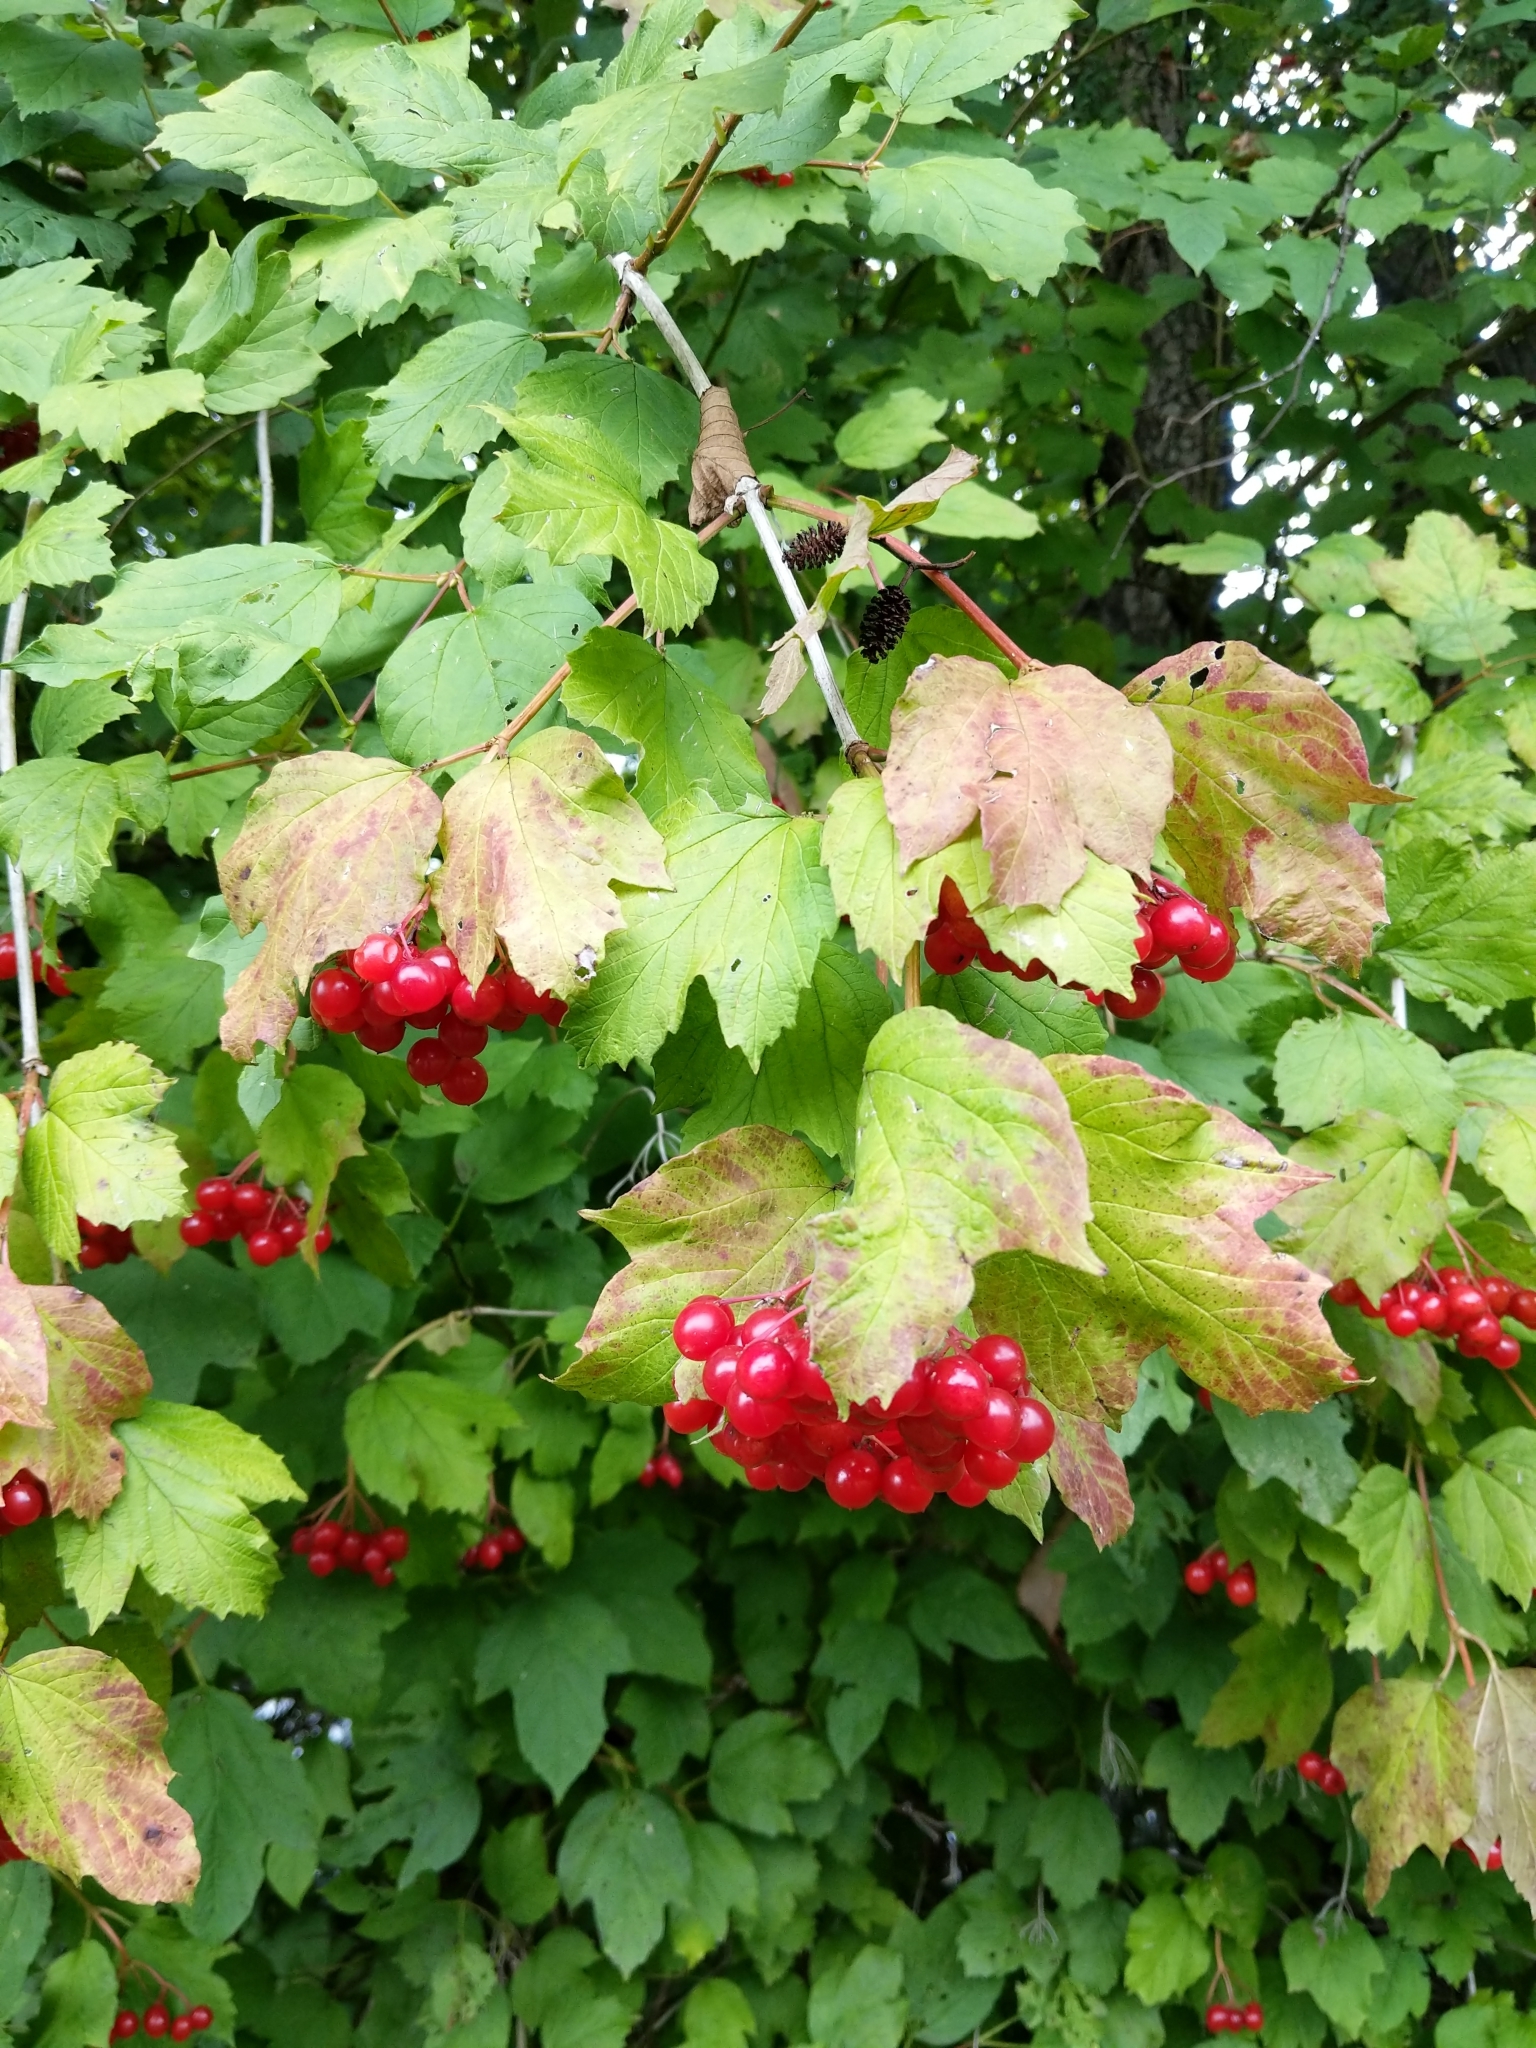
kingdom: Plantae
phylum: Tracheophyta
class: Magnoliopsida
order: Dipsacales
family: Viburnaceae
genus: Viburnum
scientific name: Viburnum opulus
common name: Guelder-rose
